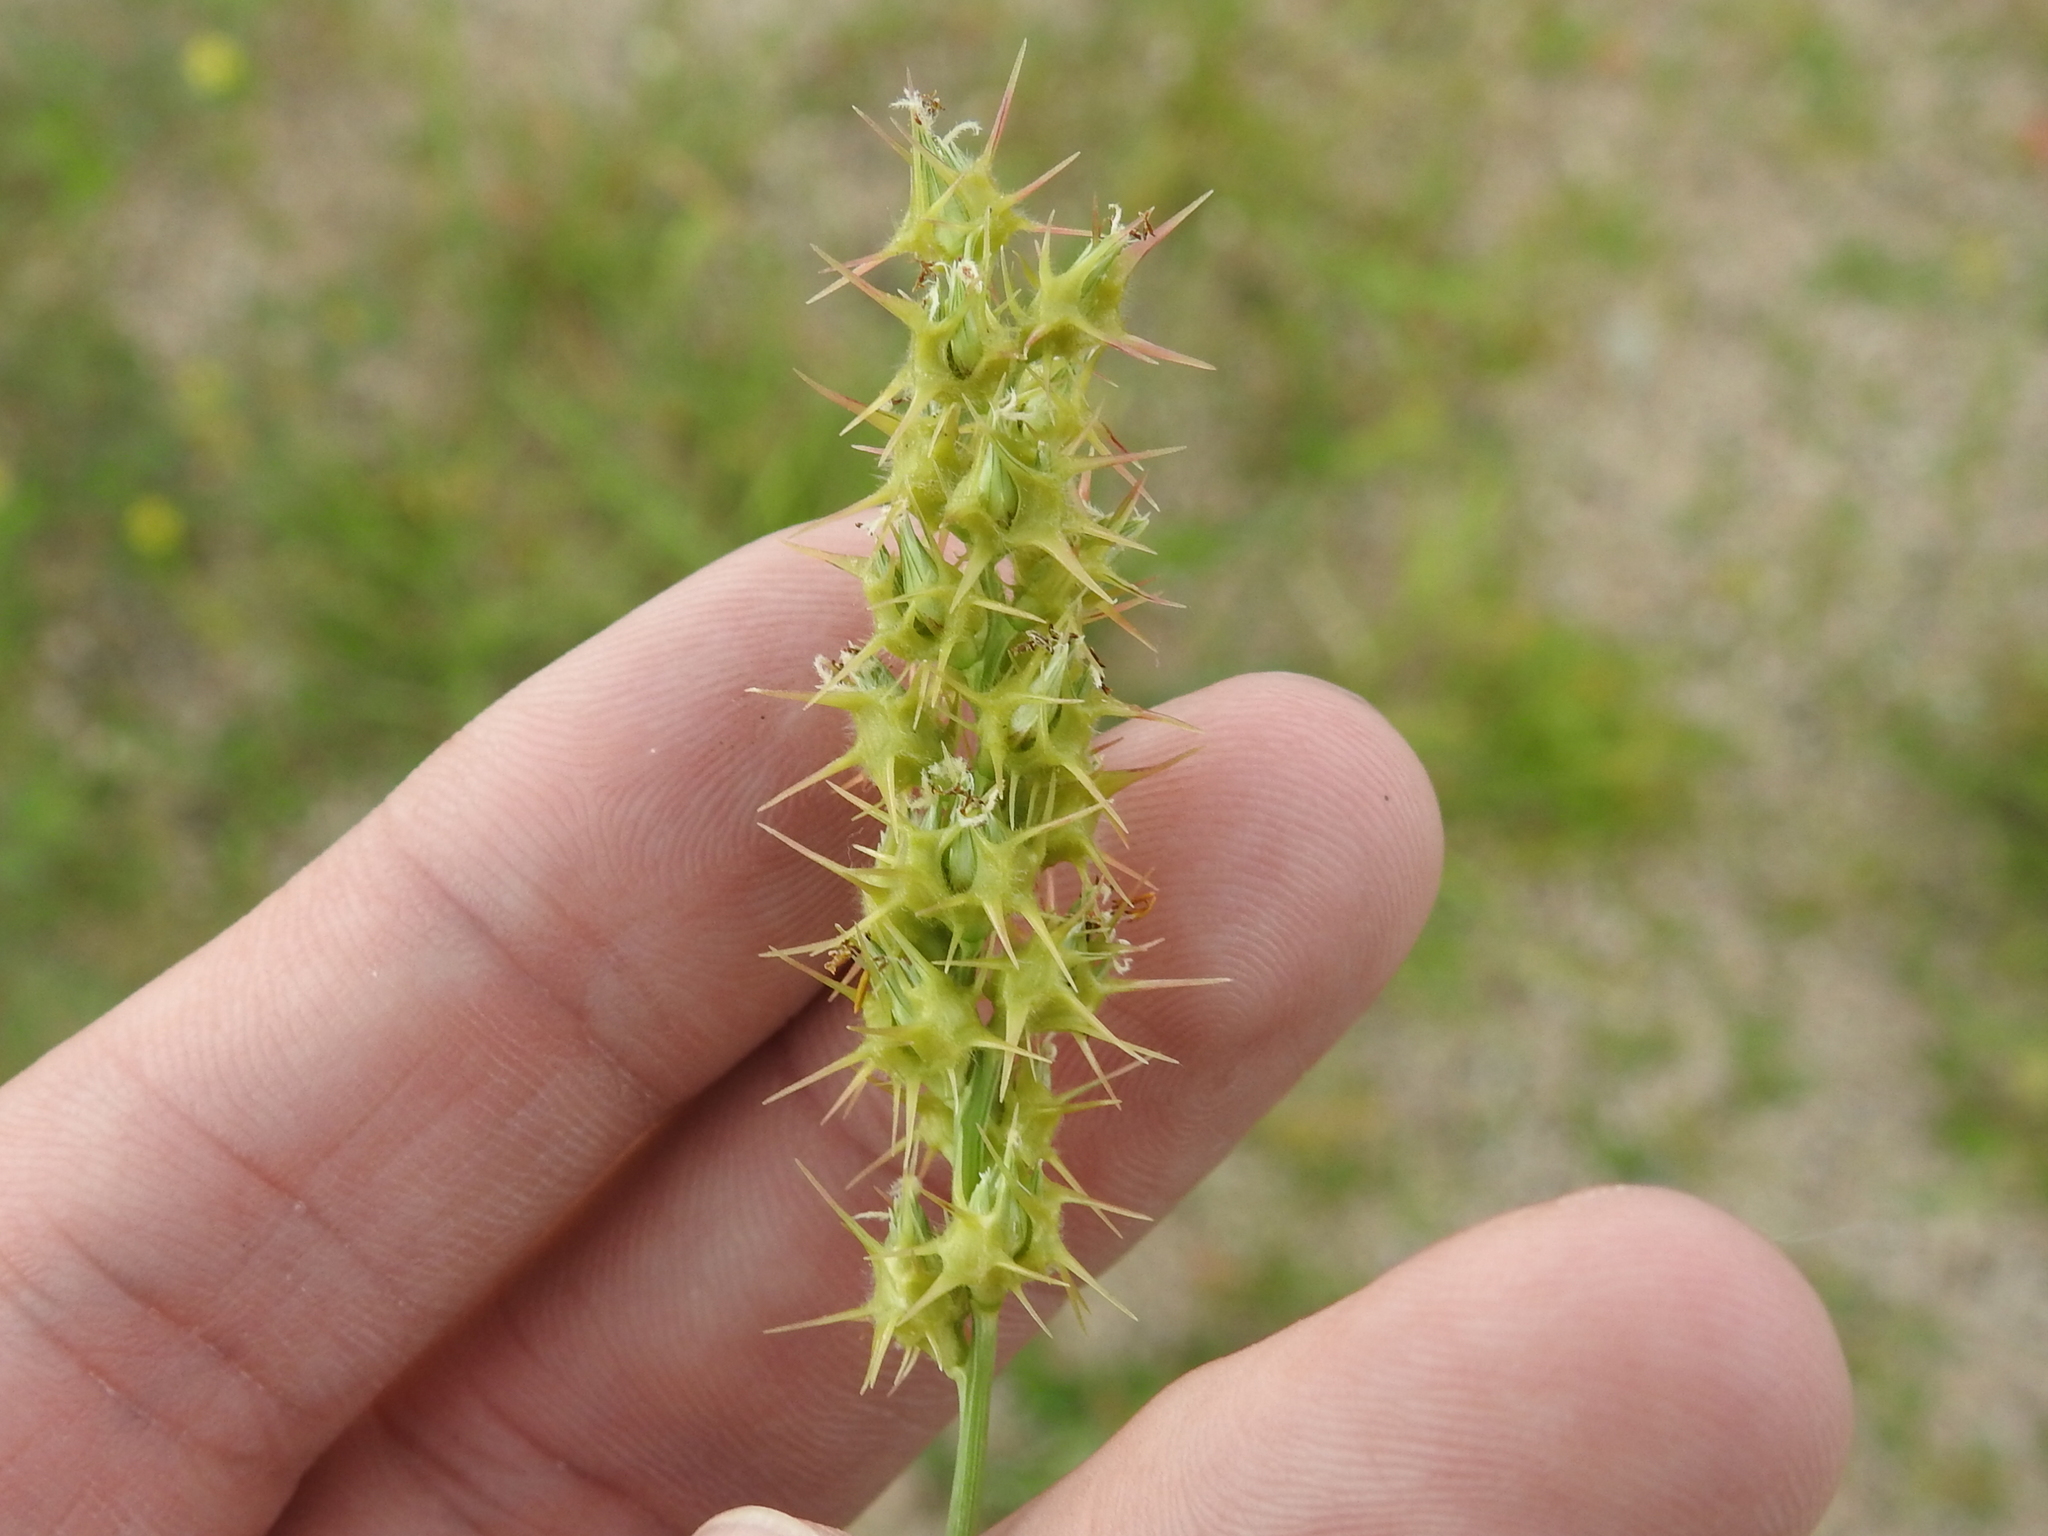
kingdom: Plantae
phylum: Tracheophyta
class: Liliopsida
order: Poales
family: Poaceae
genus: Cenchrus
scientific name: Cenchrus spinifex
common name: Coast sandbur
